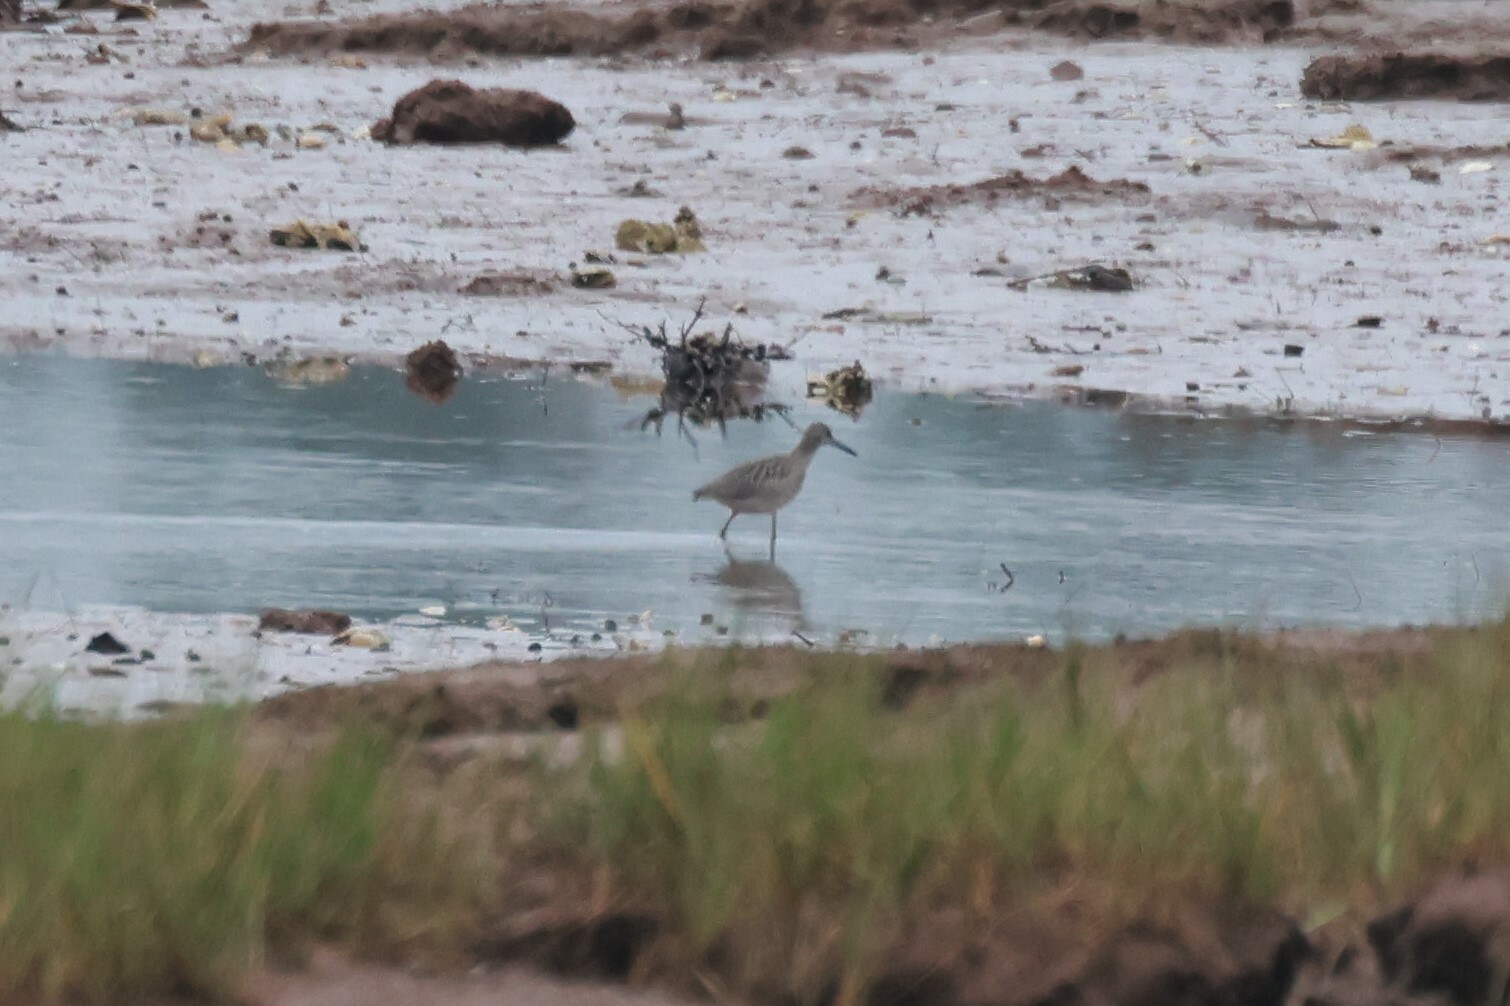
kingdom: Animalia
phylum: Chordata
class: Aves
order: Charadriiformes
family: Scolopacidae
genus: Tringa
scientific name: Tringa semipalmata
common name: Willet
